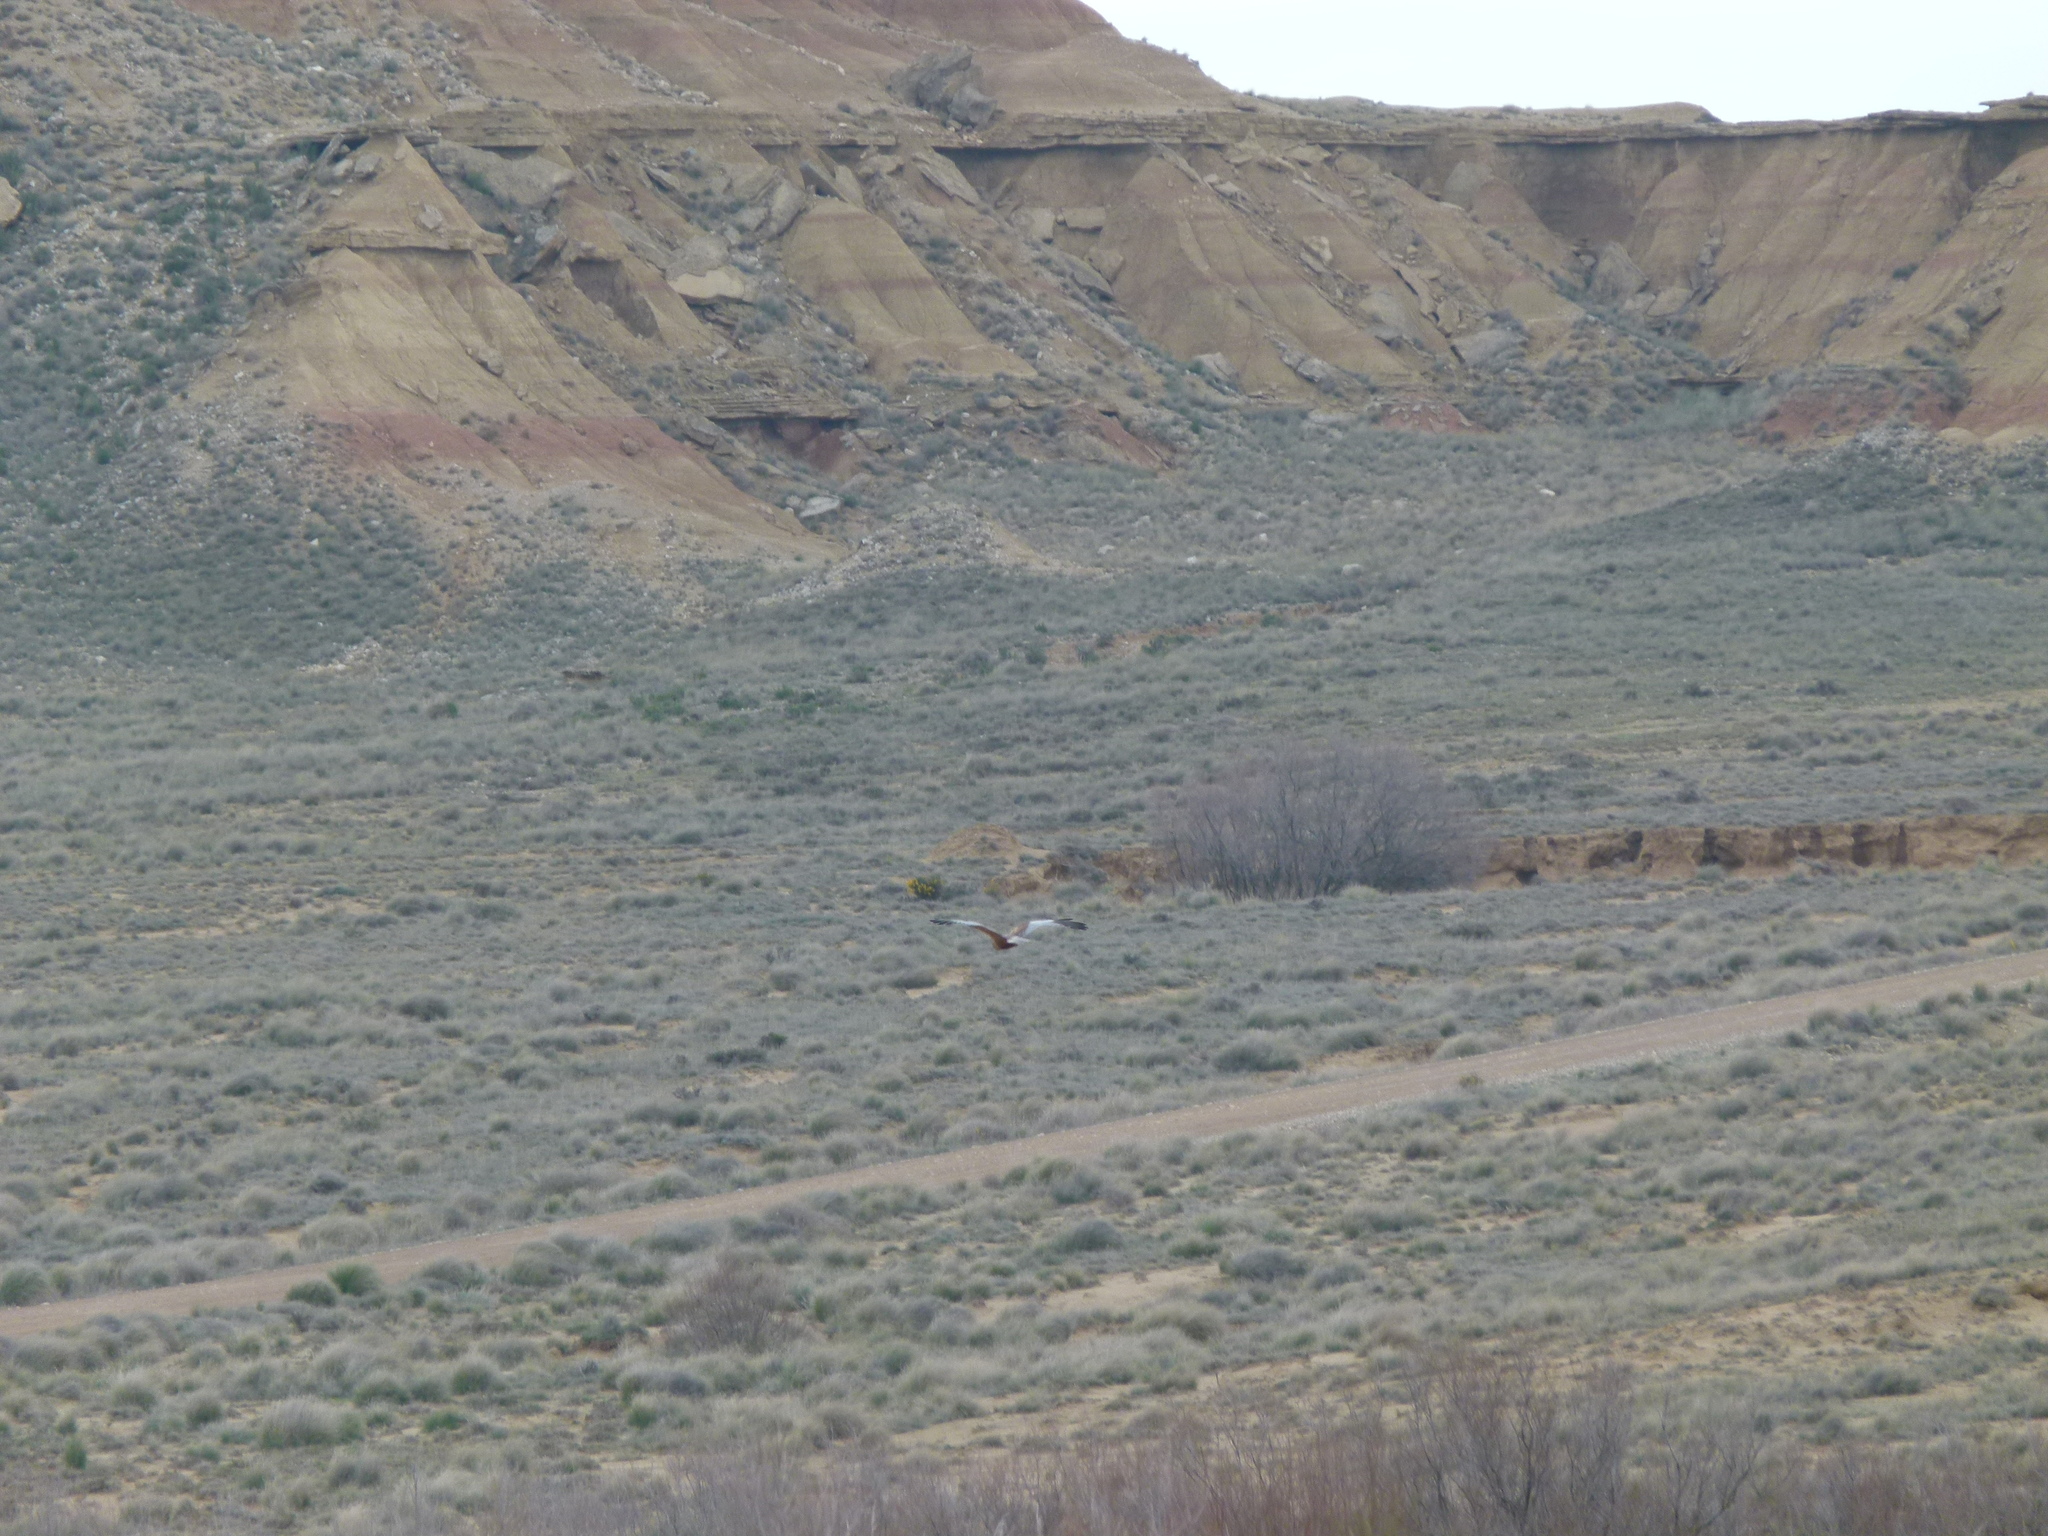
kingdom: Animalia
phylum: Chordata
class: Aves
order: Accipitriformes
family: Accipitridae
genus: Circus
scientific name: Circus aeruginosus
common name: Western marsh harrier
